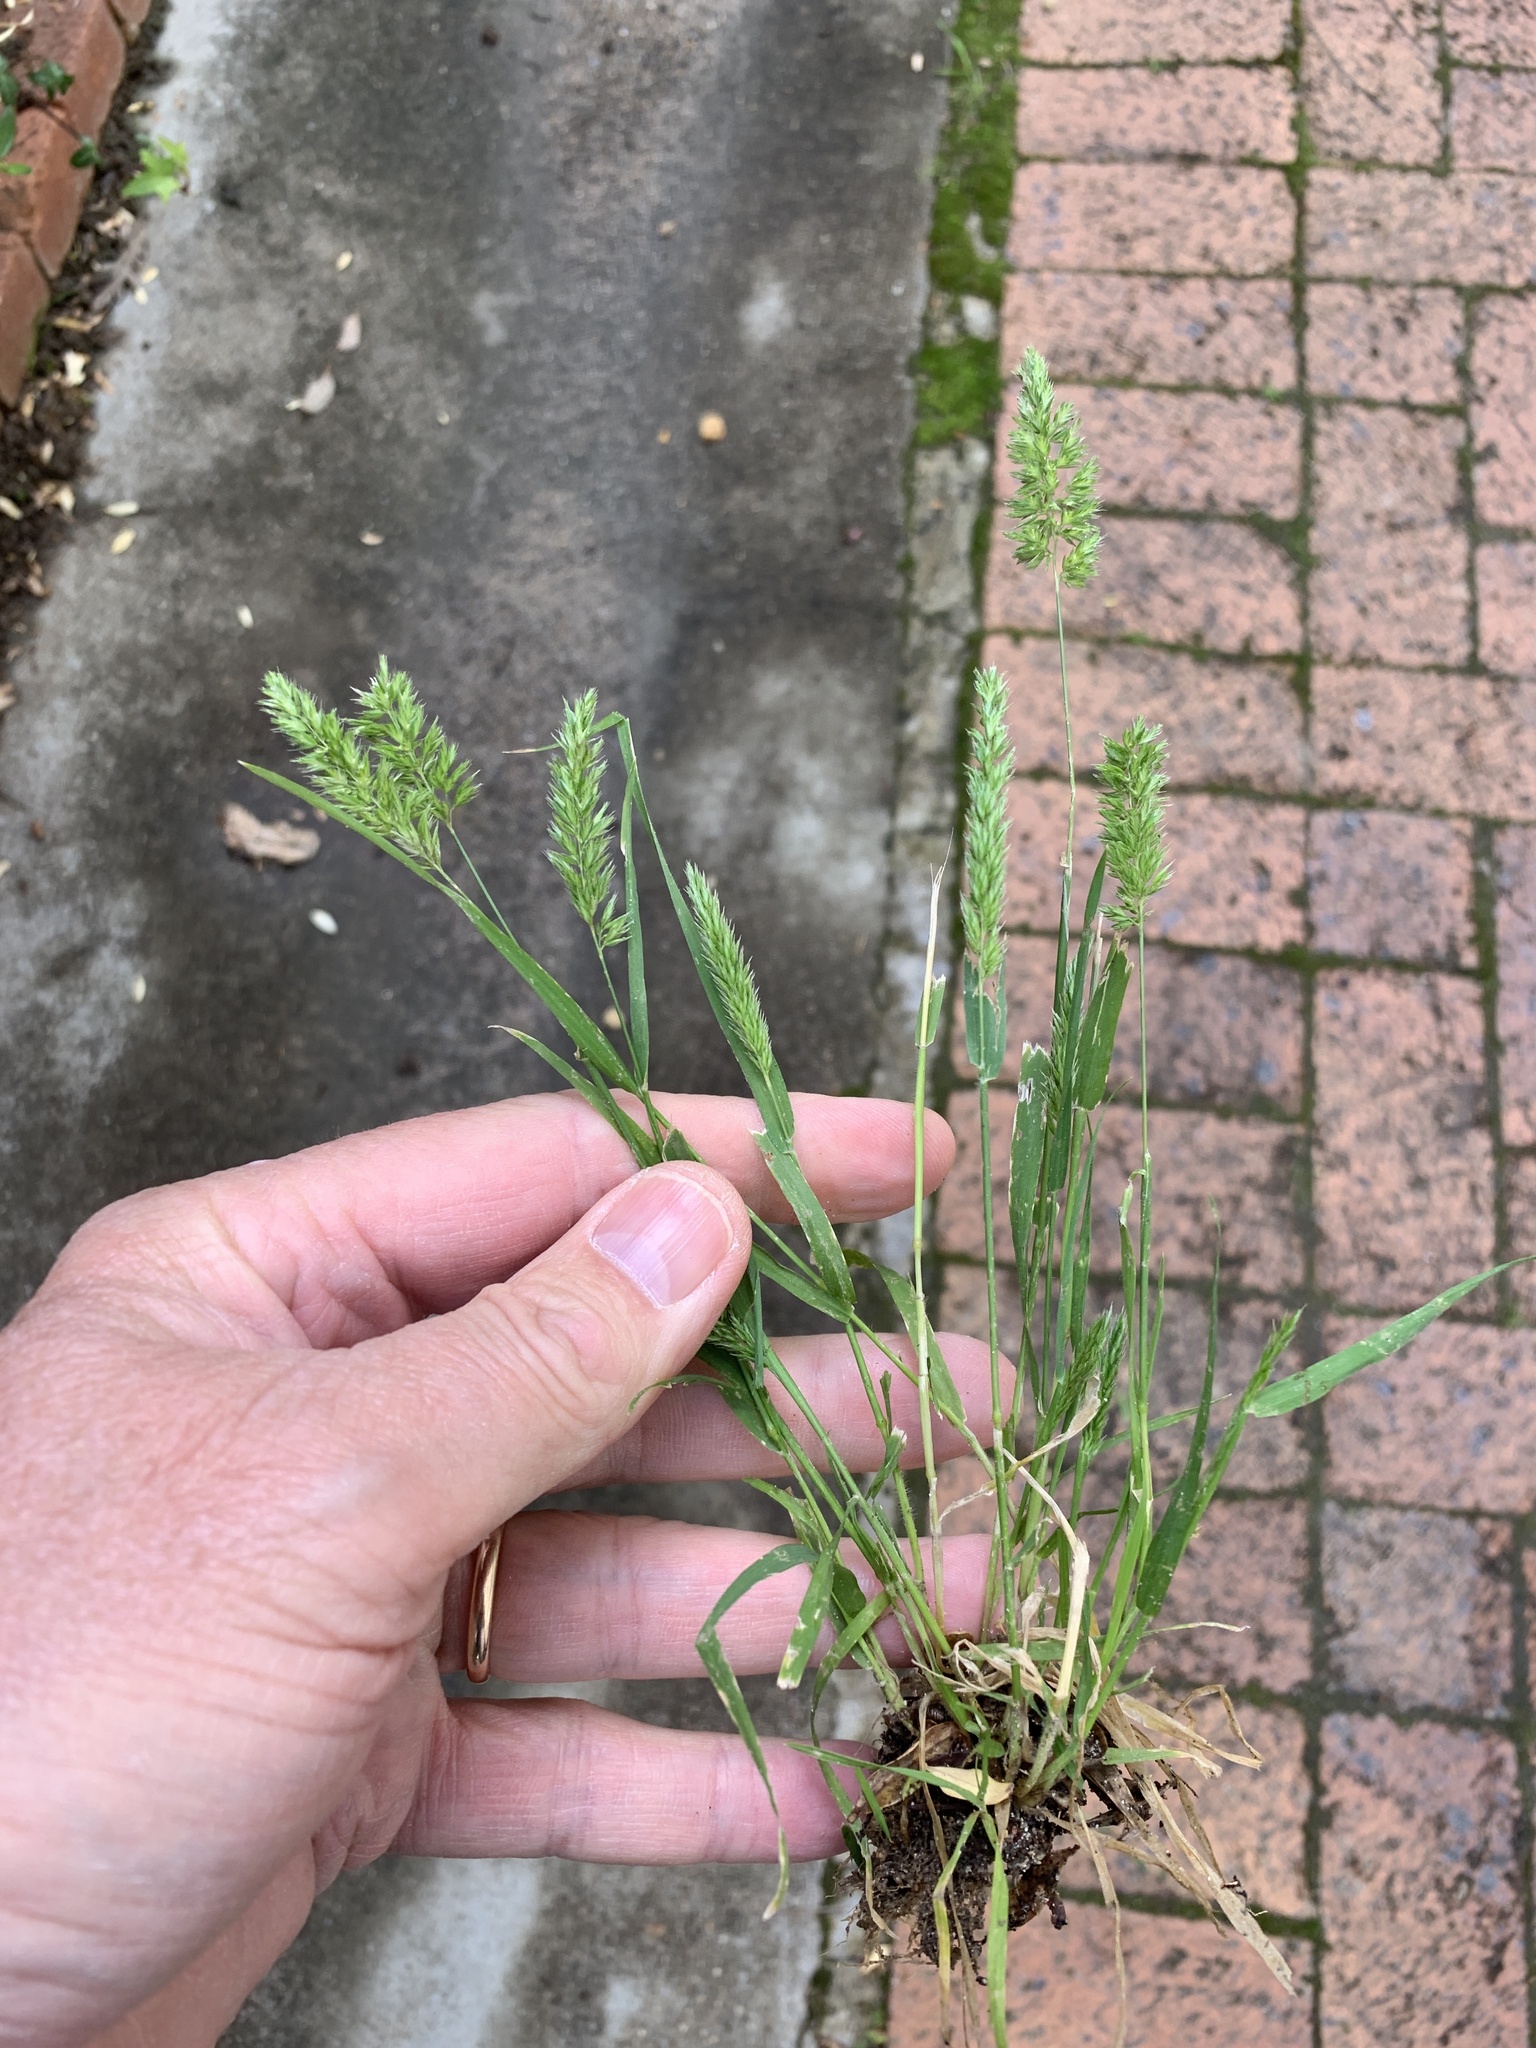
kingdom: Plantae
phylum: Tracheophyta
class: Liliopsida
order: Poales
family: Poaceae
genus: Rostraria
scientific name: Rostraria cristata
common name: Mediterranean hair-grass
